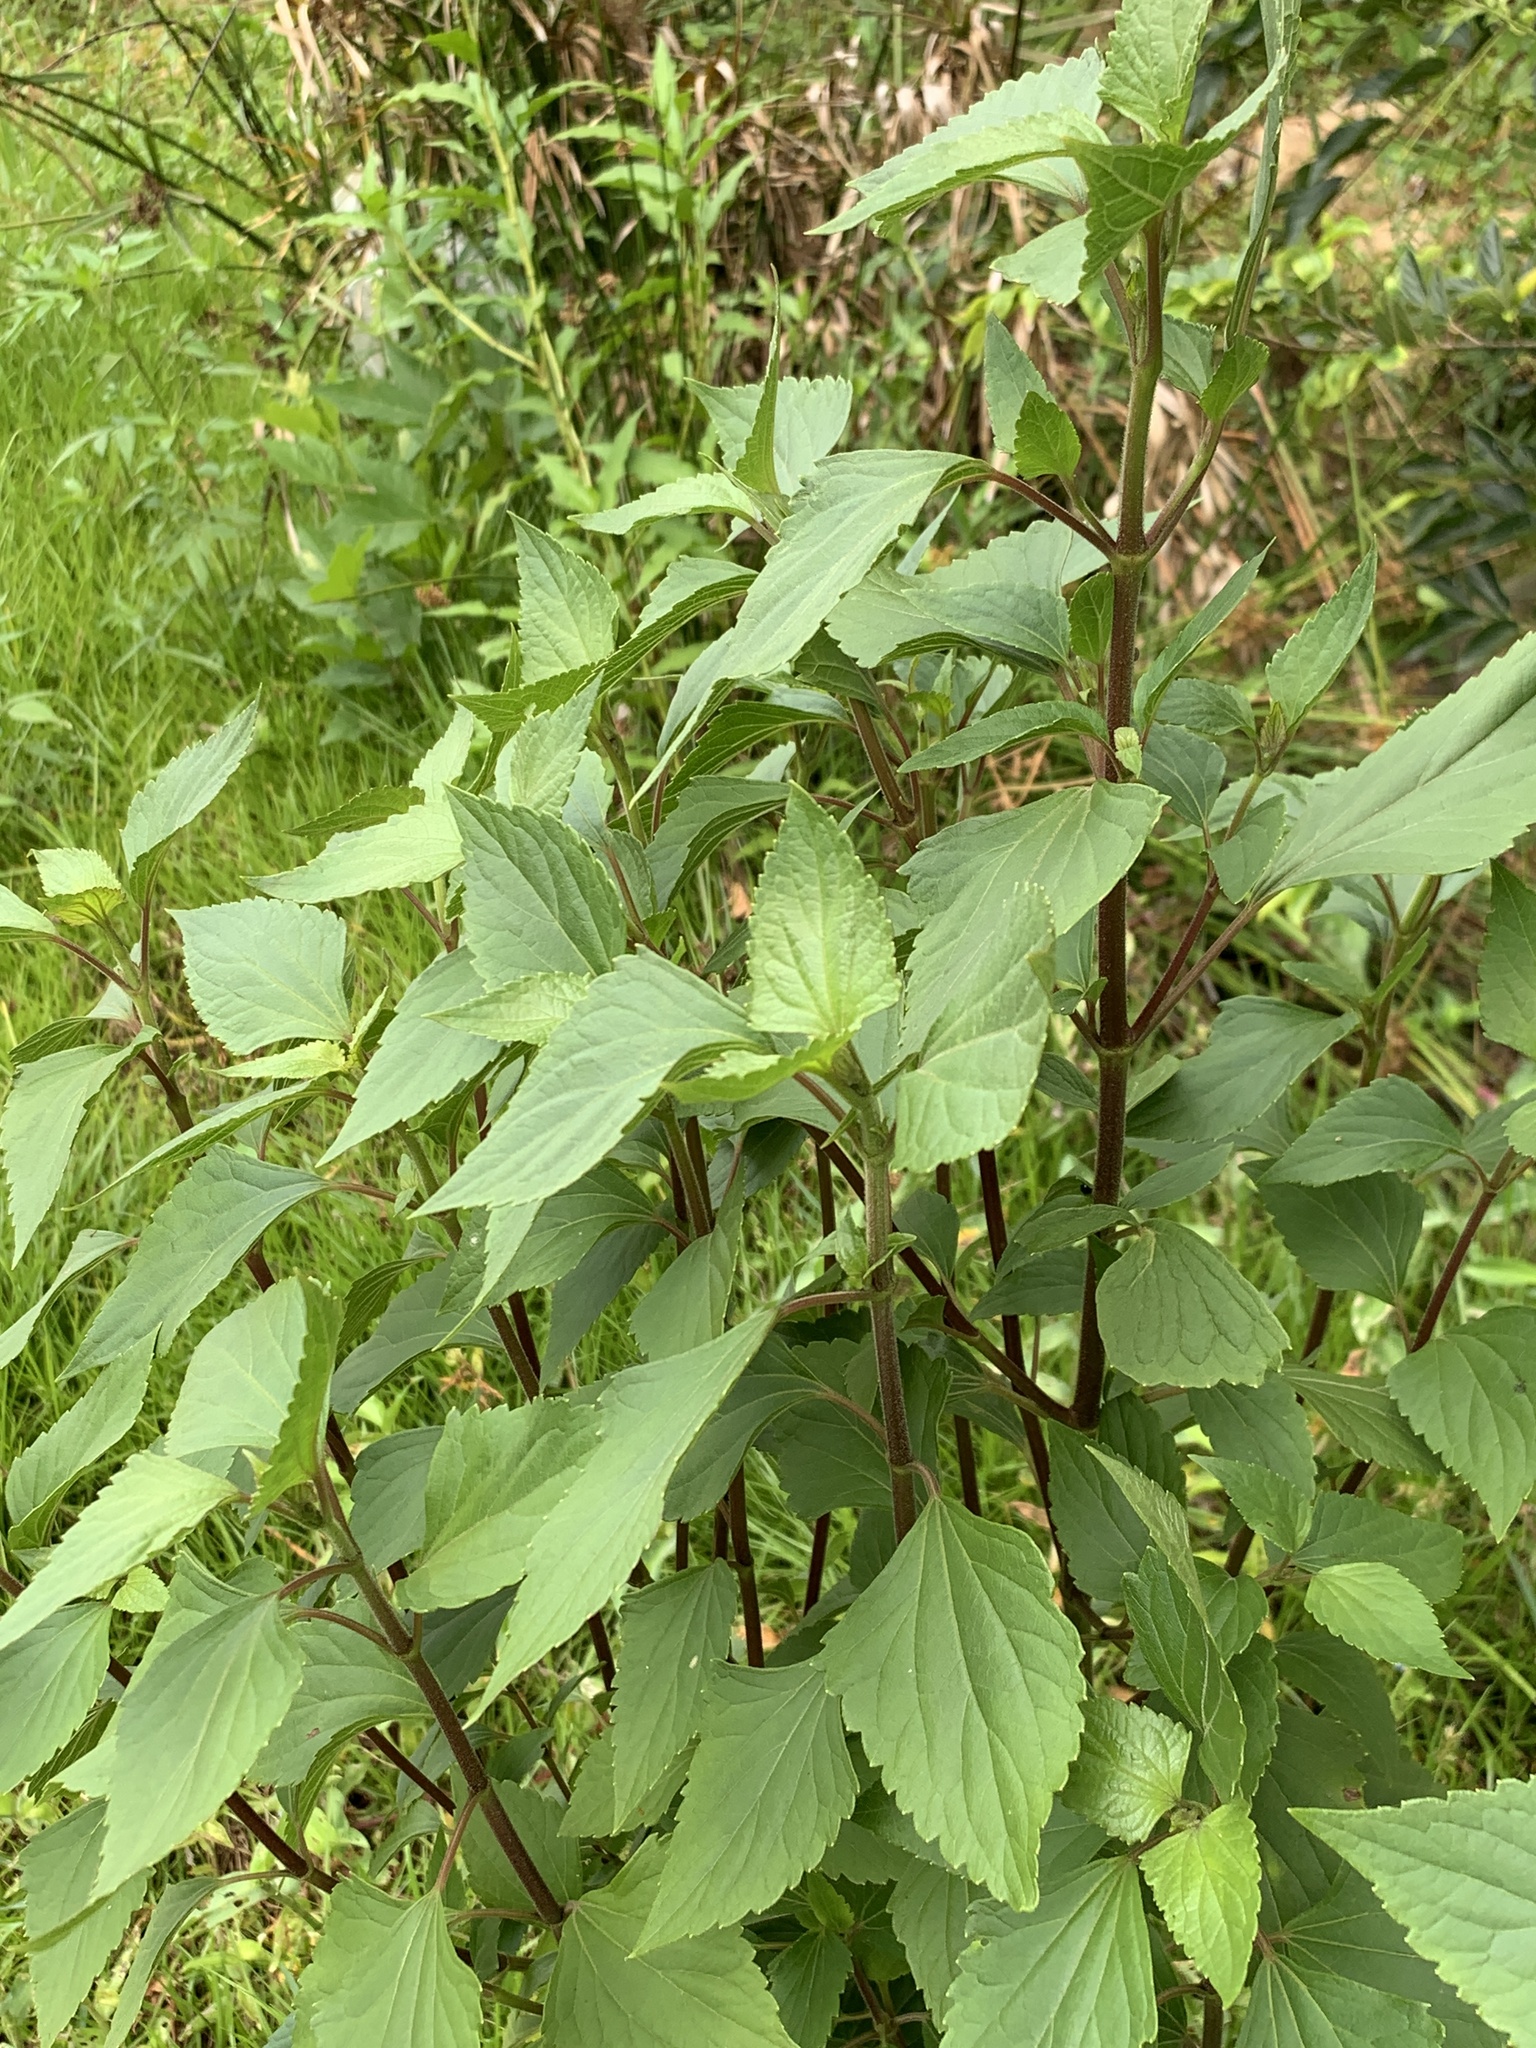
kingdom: Plantae
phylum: Tracheophyta
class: Magnoliopsida
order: Asterales
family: Asteraceae
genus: Ageratina
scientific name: Ageratina adenophora
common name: Sticky snakeroot
